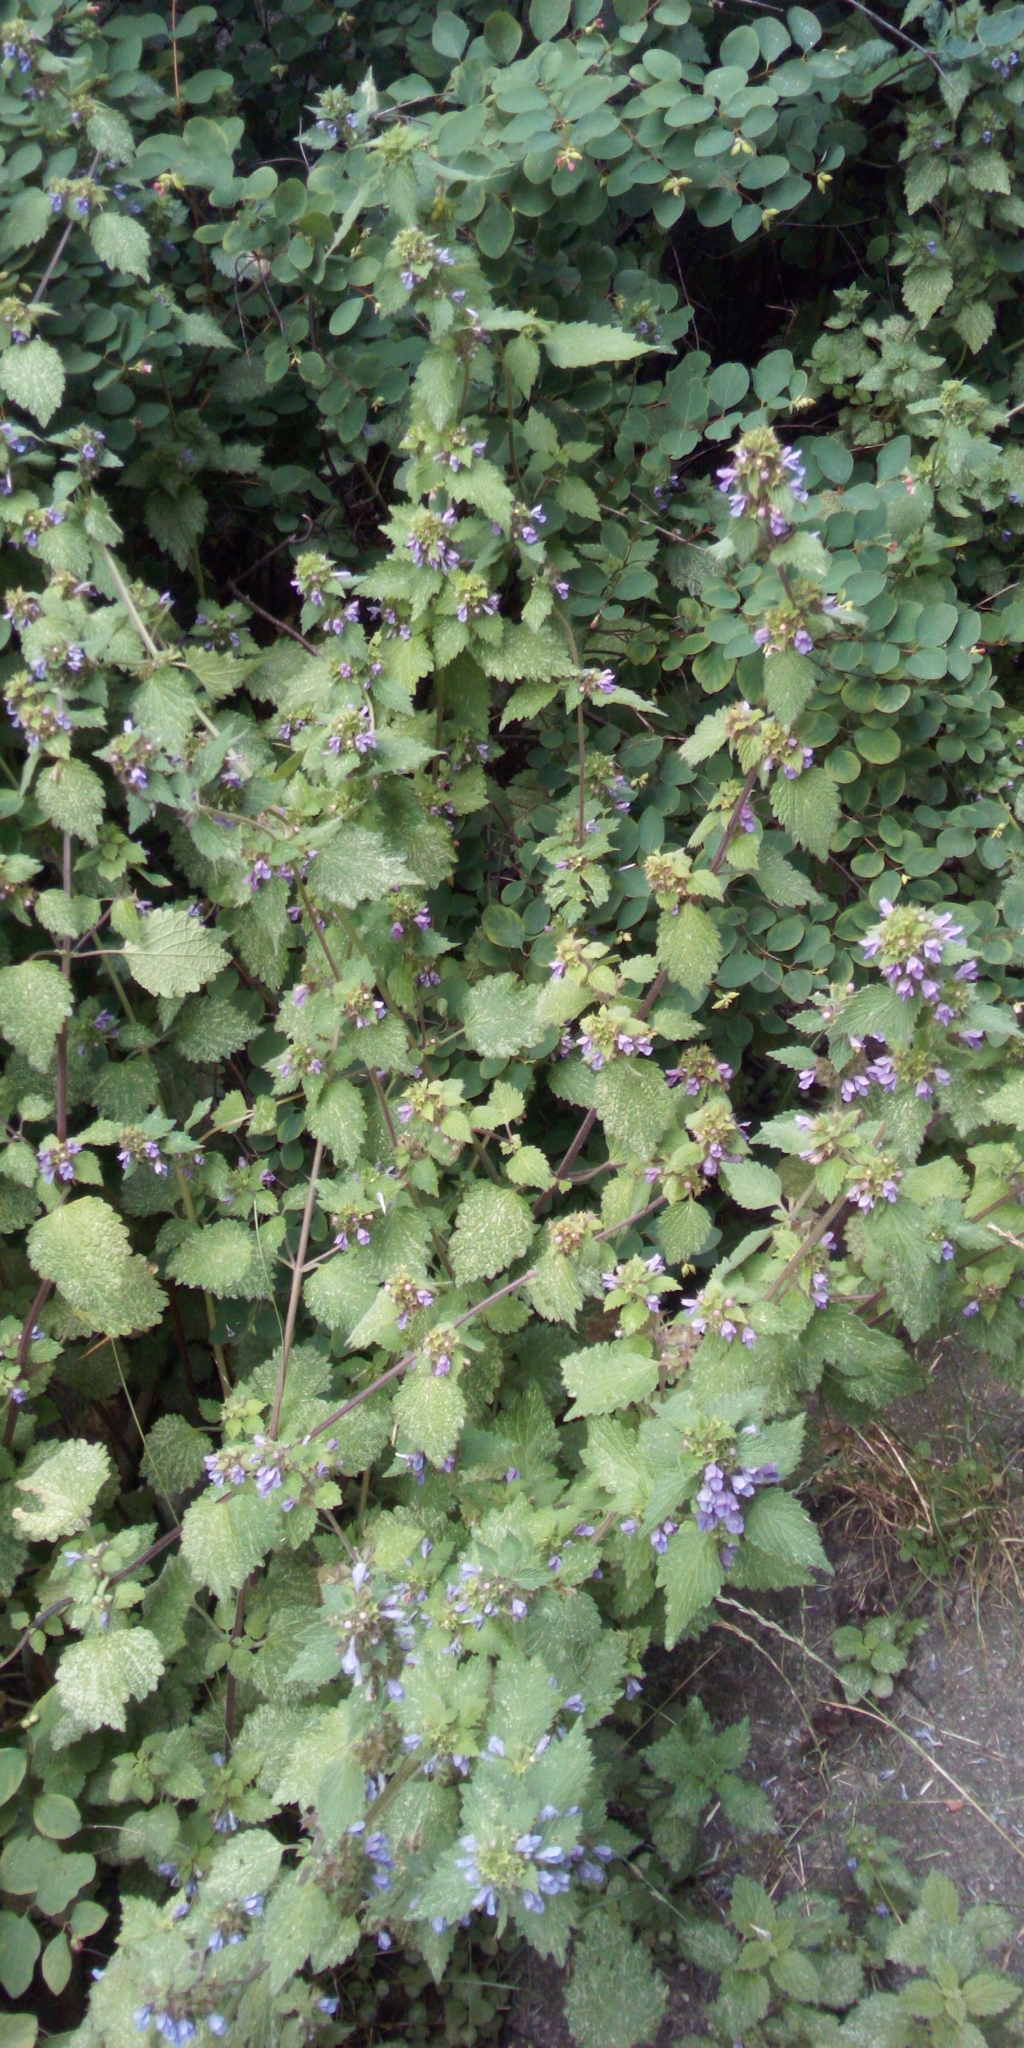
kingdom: Plantae
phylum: Tracheophyta
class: Magnoliopsida
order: Lamiales
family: Lamiaceae
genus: Ballota
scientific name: Ballota nigra
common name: Black horehound
